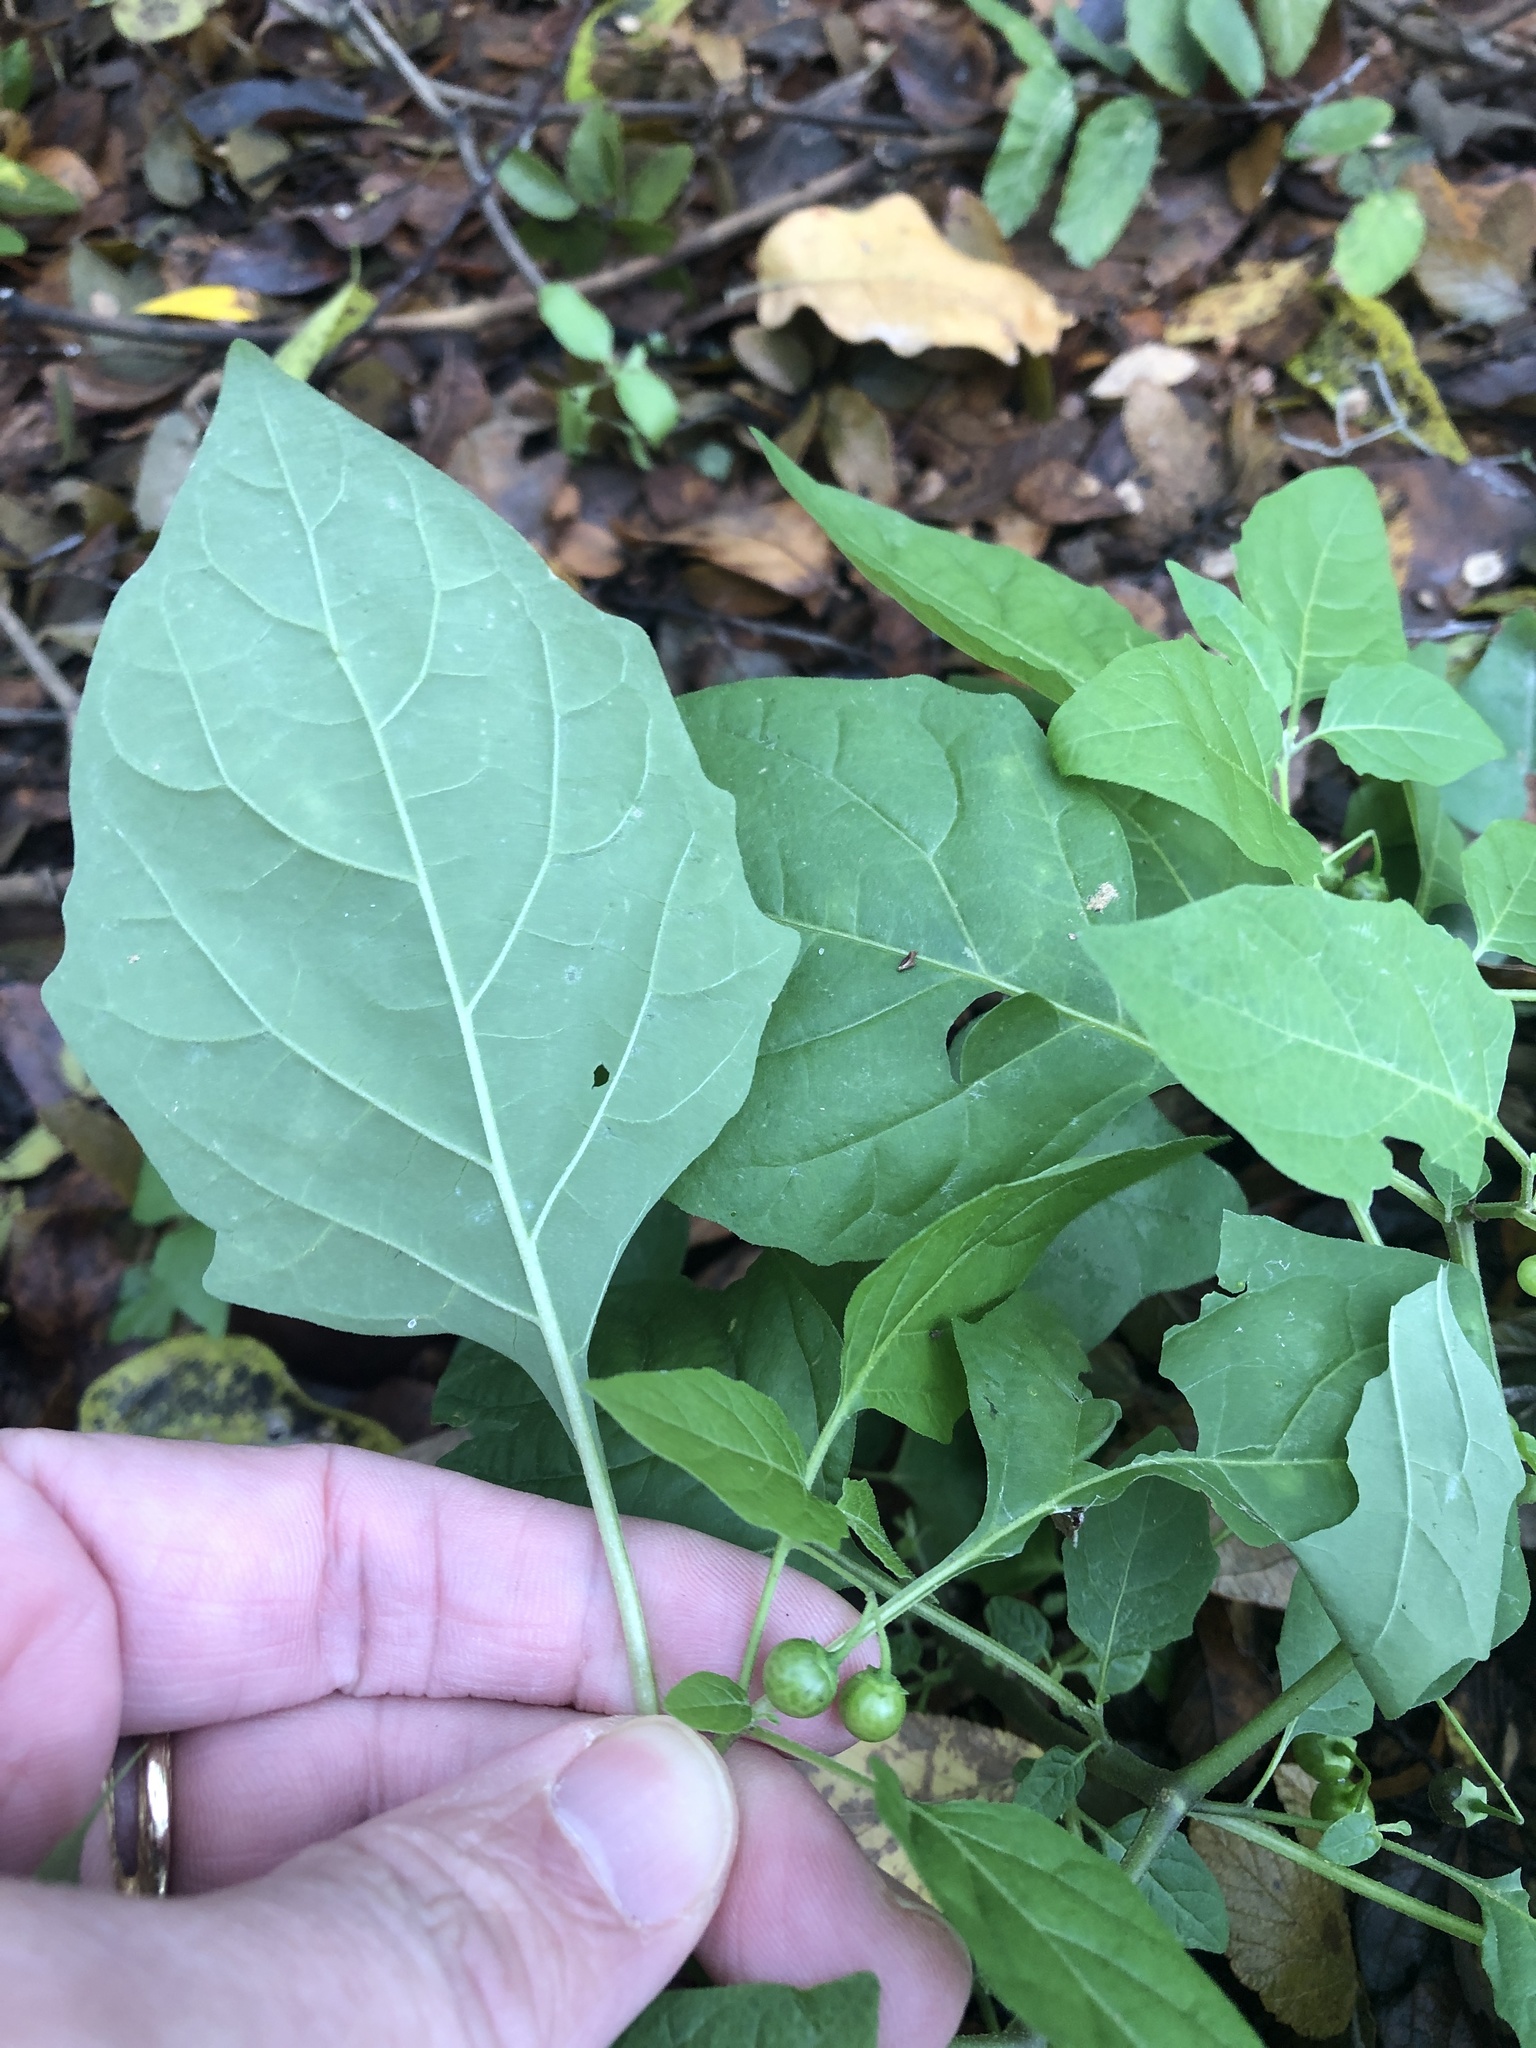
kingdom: Plantae
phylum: Tracheophyta
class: Magnoliopsida
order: Solanales
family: Solanaceae
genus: Solanum
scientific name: Solanum emulans
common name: Eastern black nightshade
